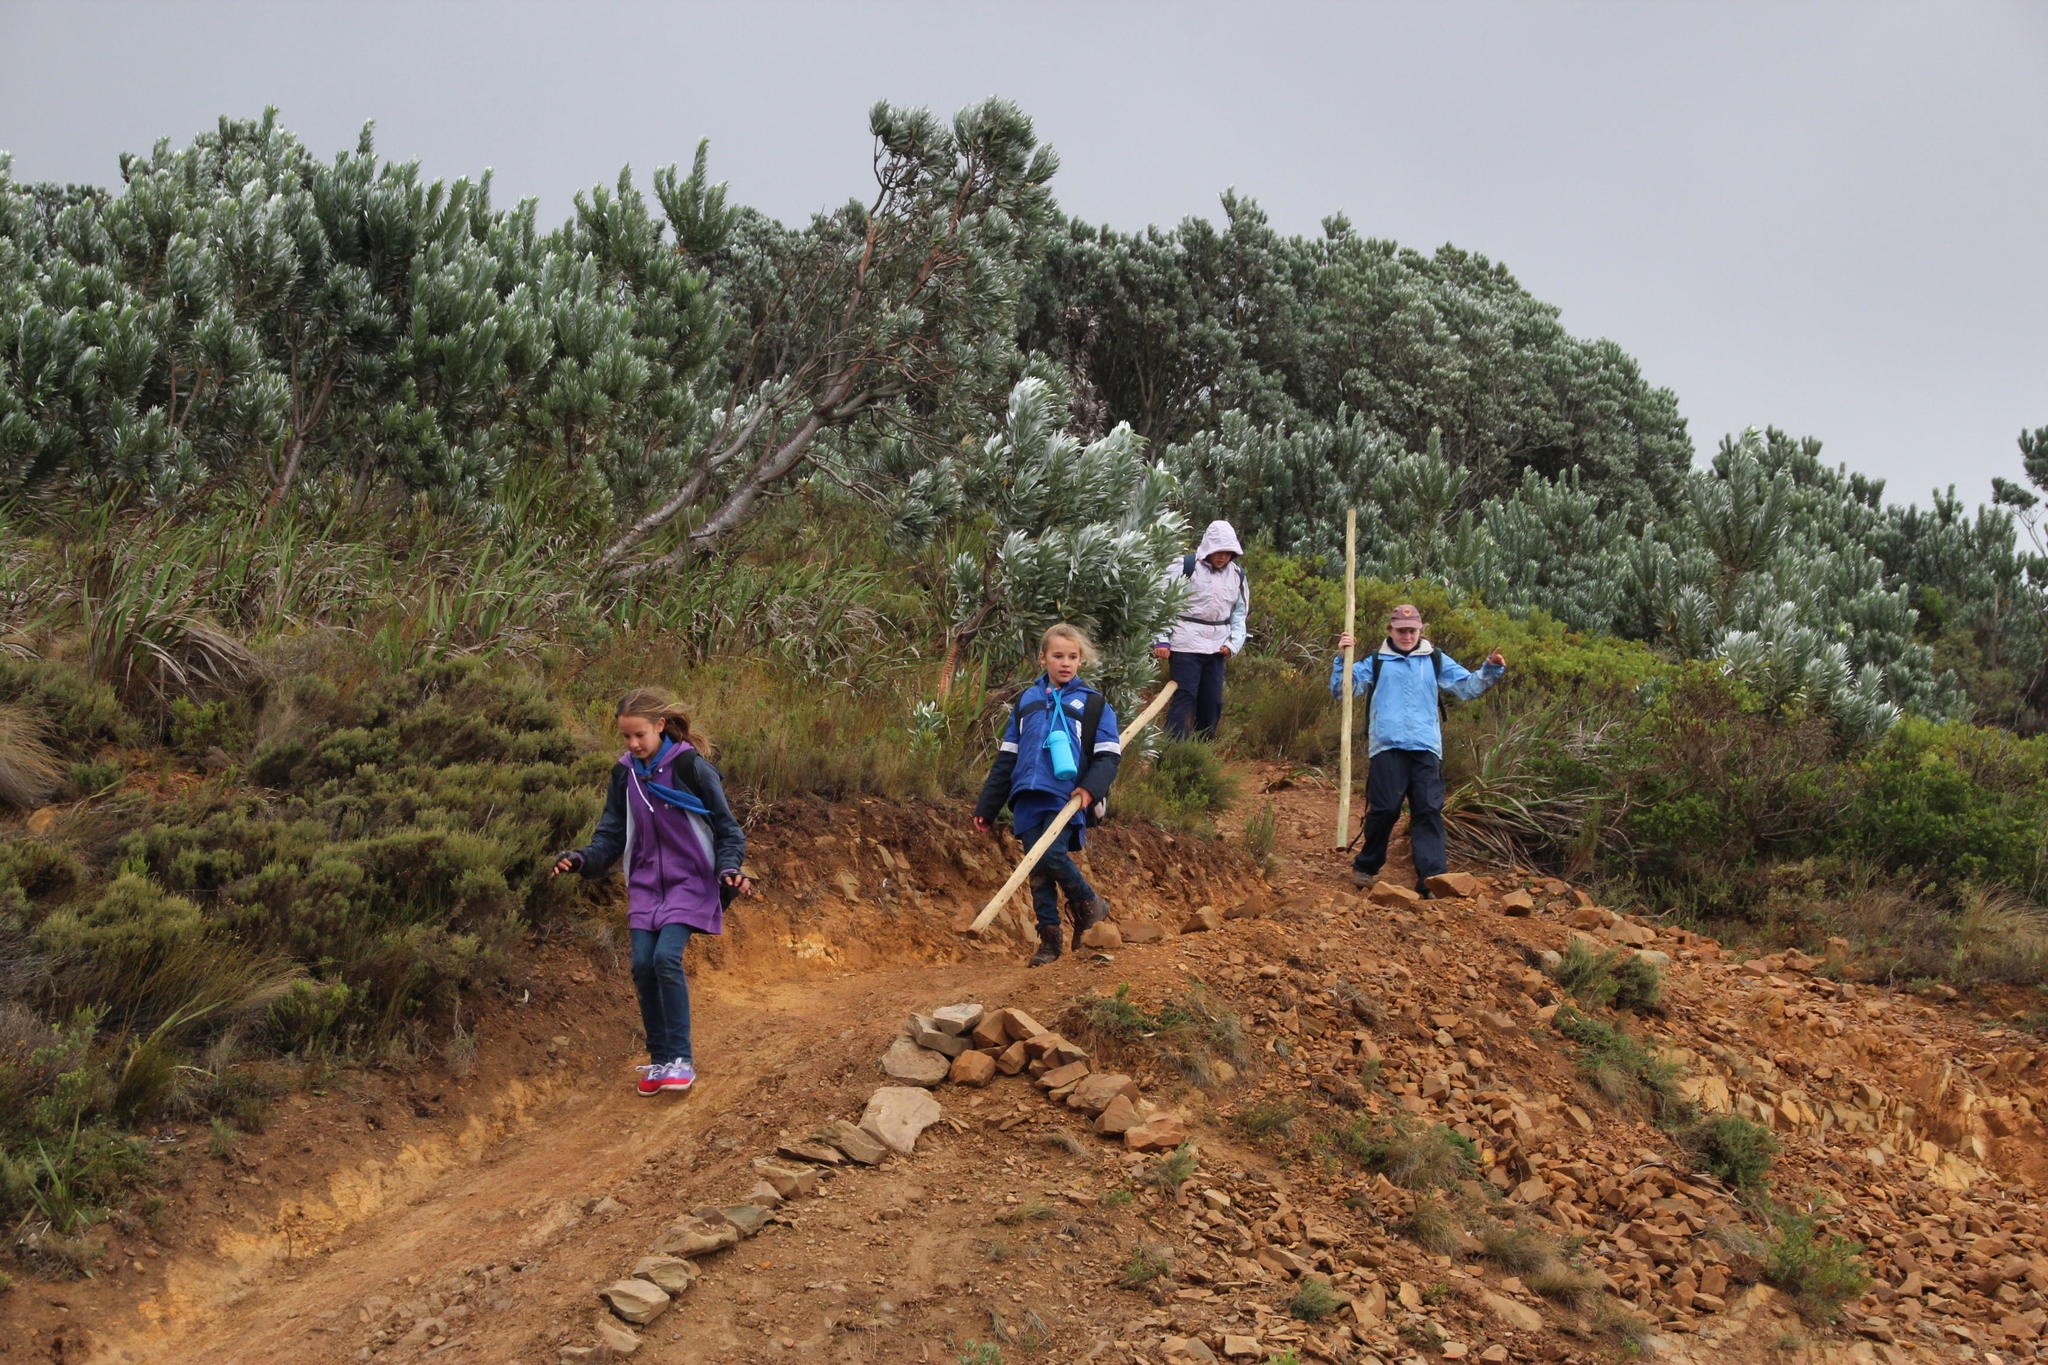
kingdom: Plantae
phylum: Tracheophyta
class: Magnoliopsida
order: Proteales
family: Proteaceae
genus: Leucadendron
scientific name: Leucadendron argenteum
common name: Cape silver tree
